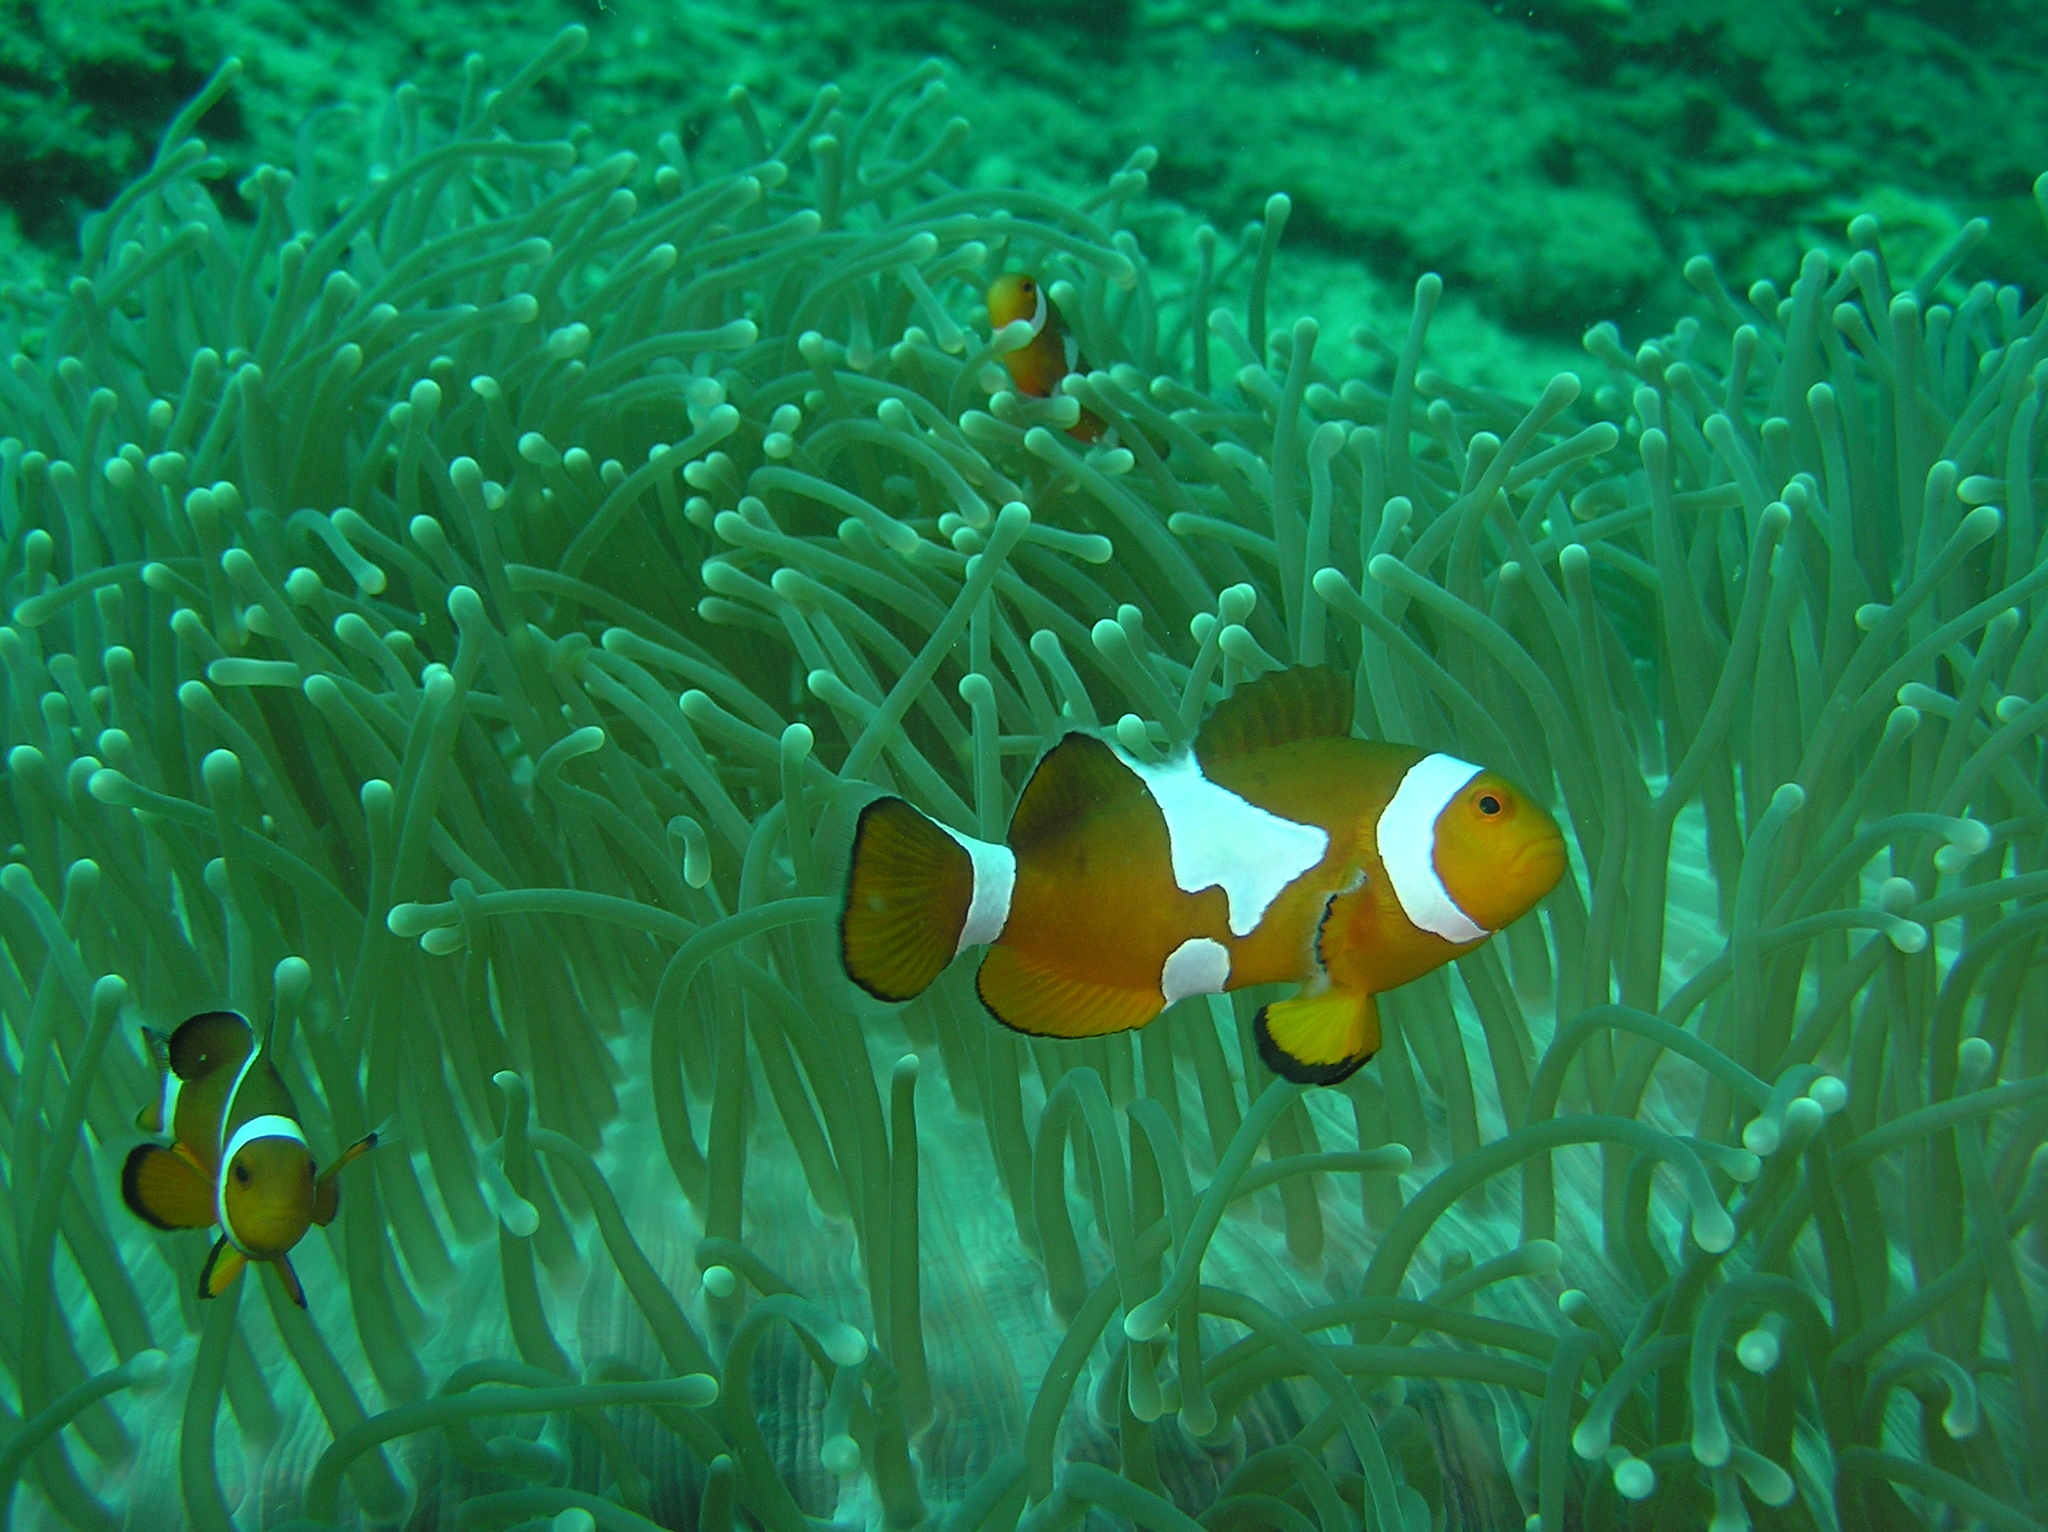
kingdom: Animalia
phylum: Chordata
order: Perciformes
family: Pomacentridae
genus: Amphiprion
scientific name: Amphiprion ocellaris
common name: Clown anemonefish
